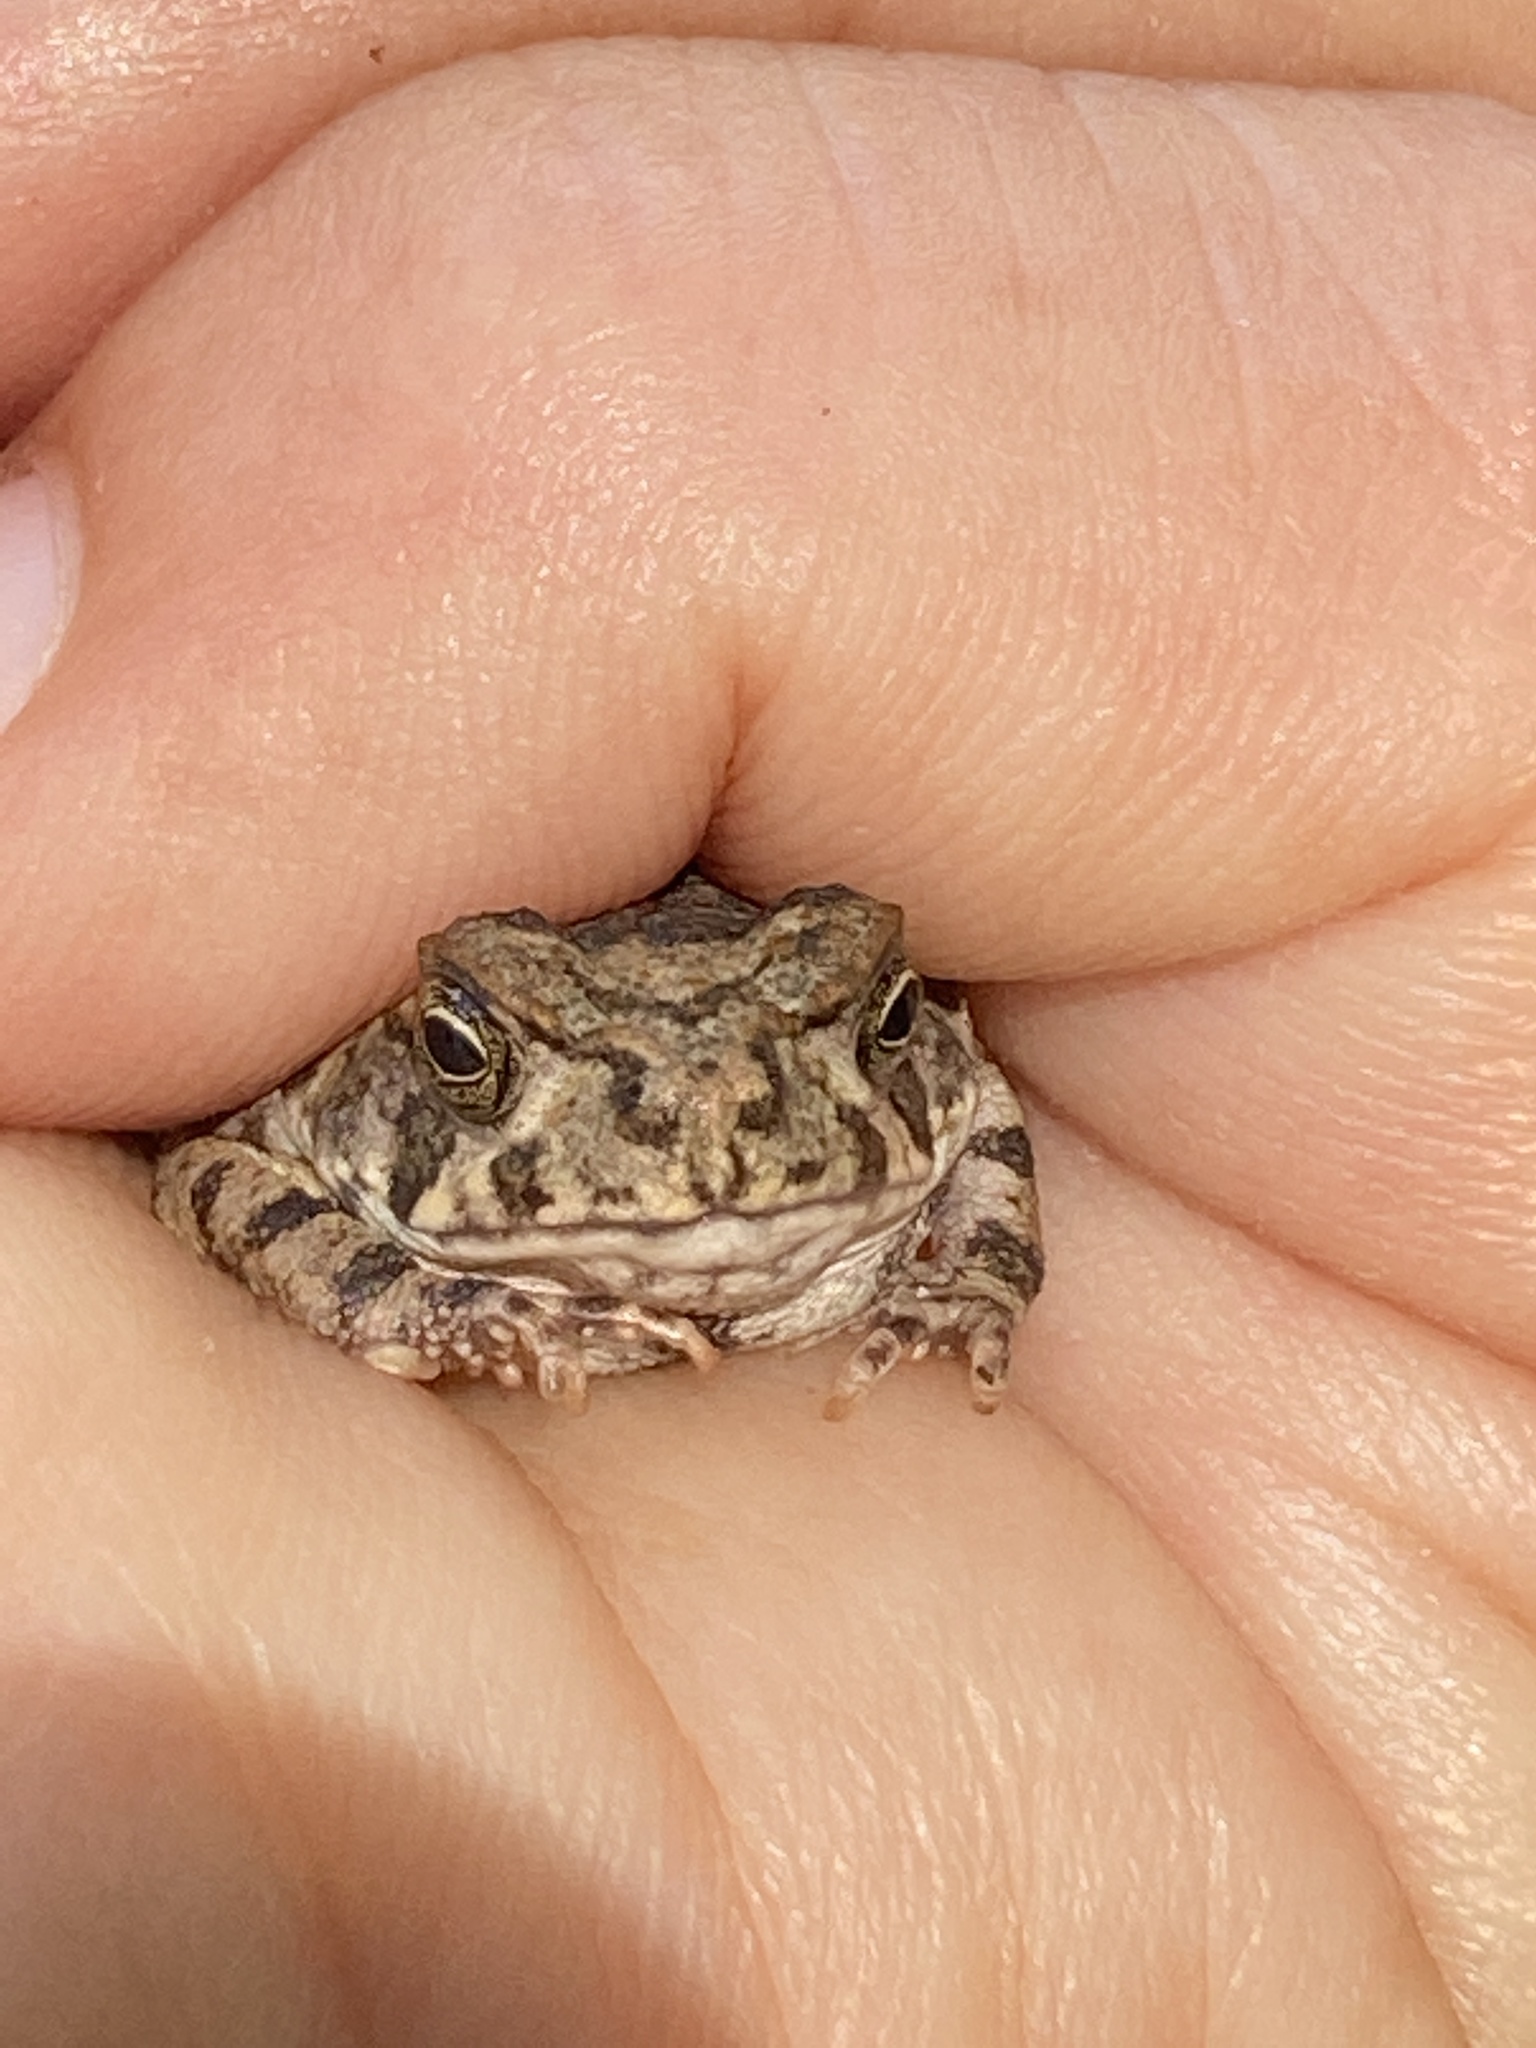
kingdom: Animalia
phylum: Chordata
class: Amphibia
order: Anura
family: Bufonidae
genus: Rhinella
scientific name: Rhinella marina
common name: Cane toad
